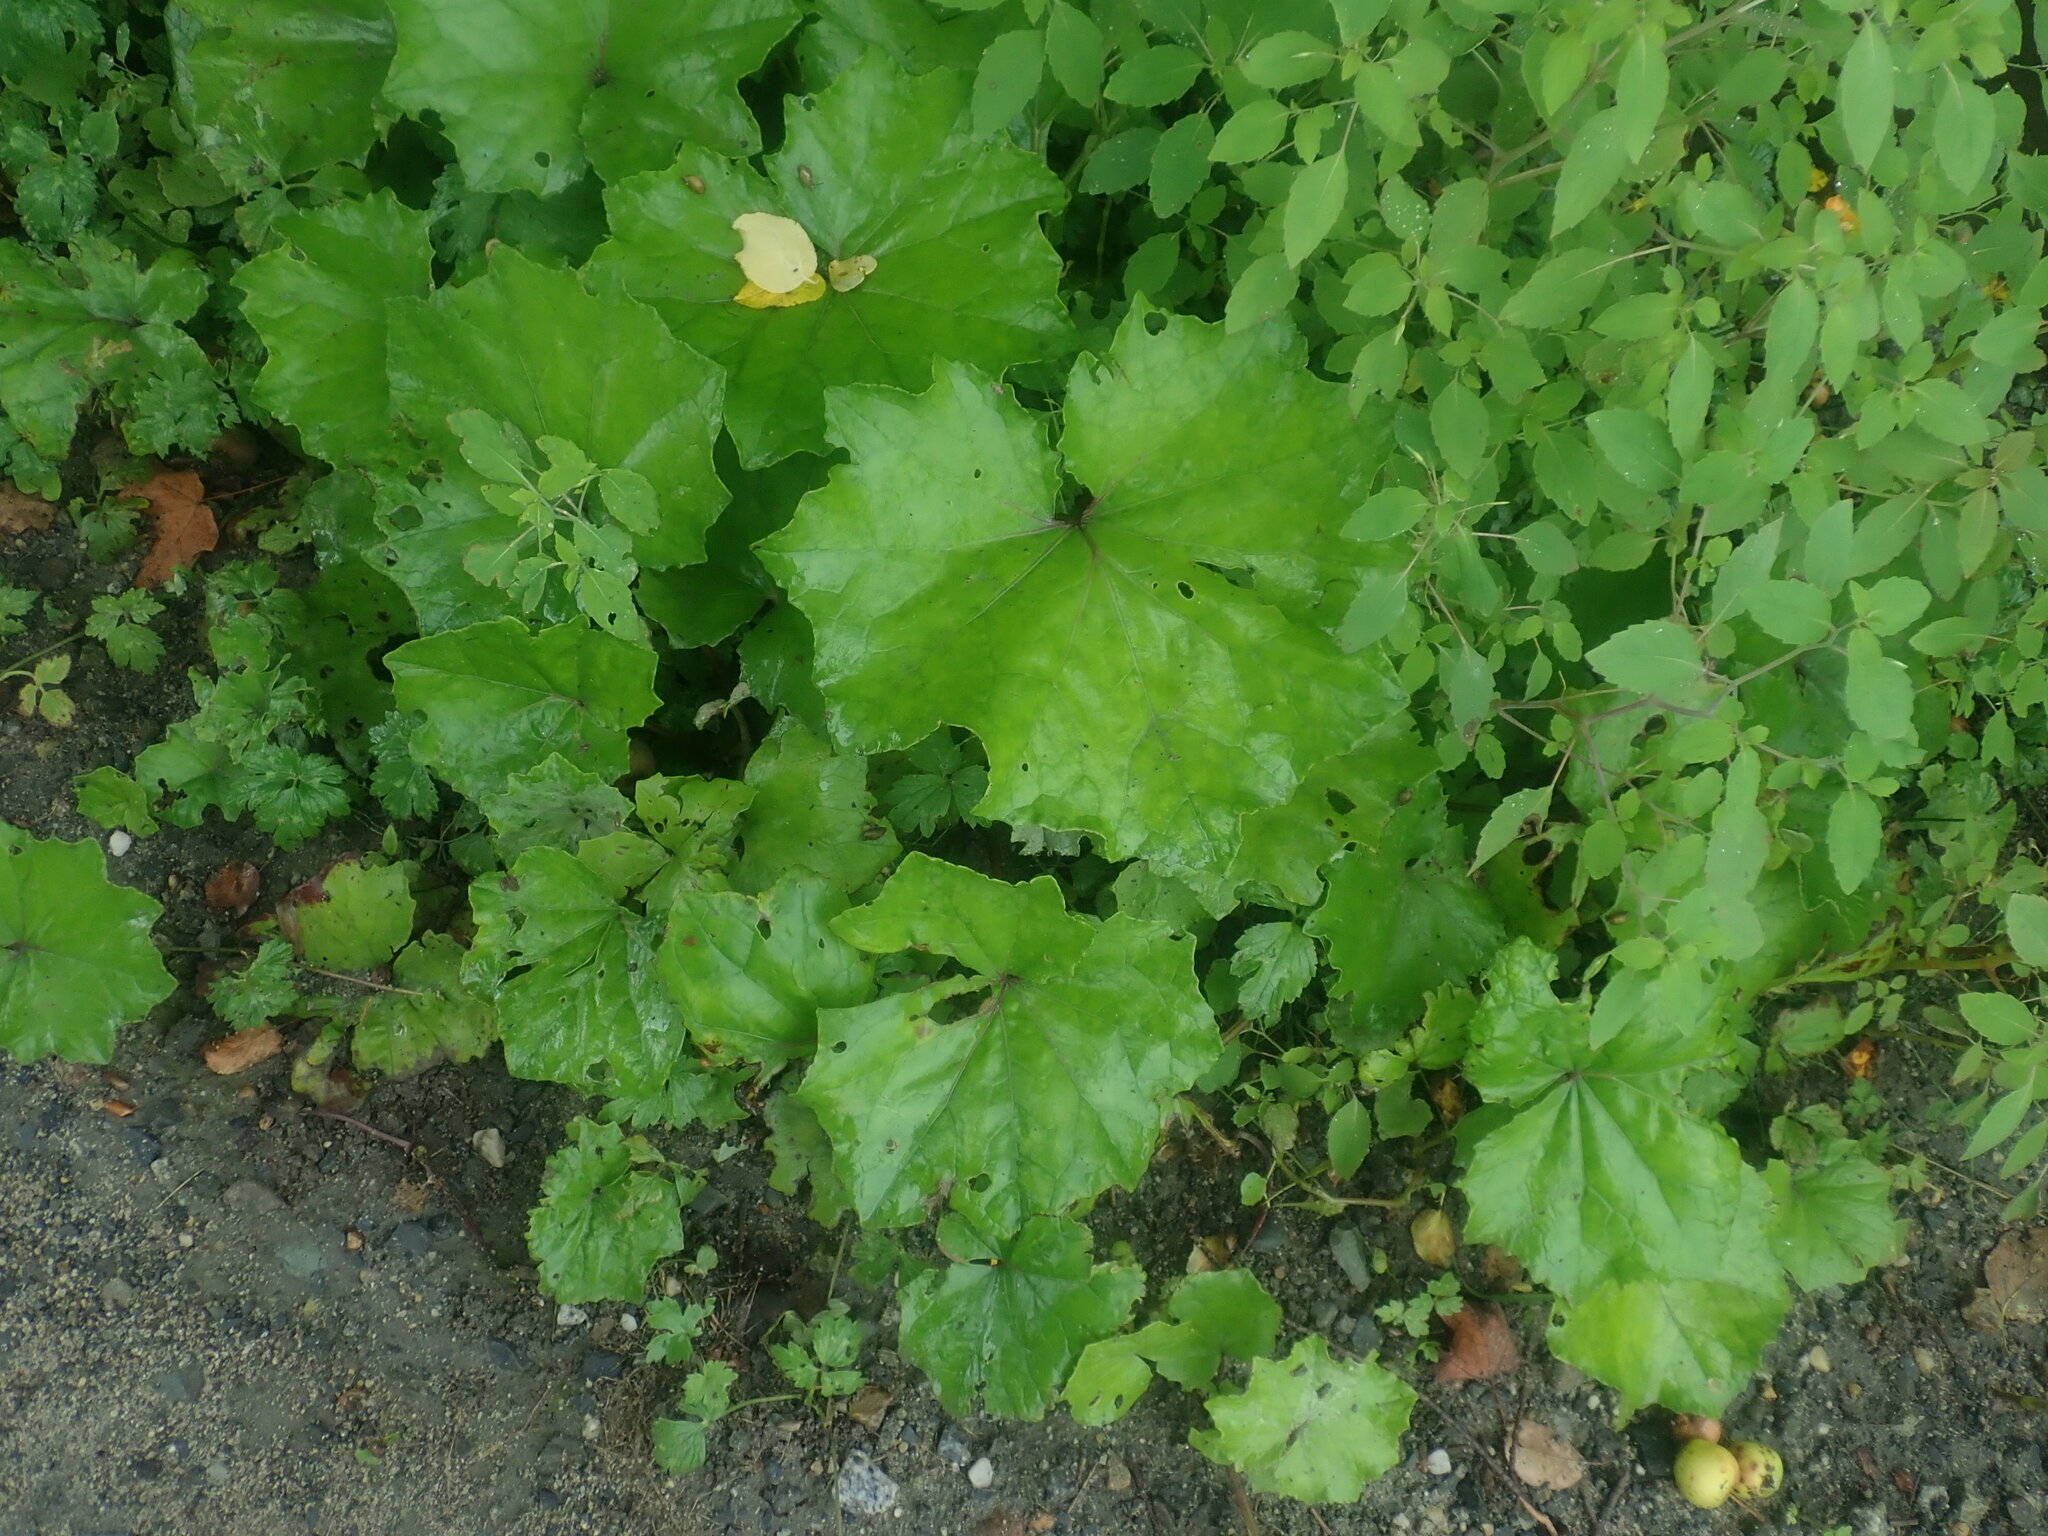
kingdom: Plantae
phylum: Tracheophyta
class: Magnoliopsida
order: Asterales
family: Asteraceae
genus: Tussilago
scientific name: Tussilago farfara
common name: Coltsfoot
